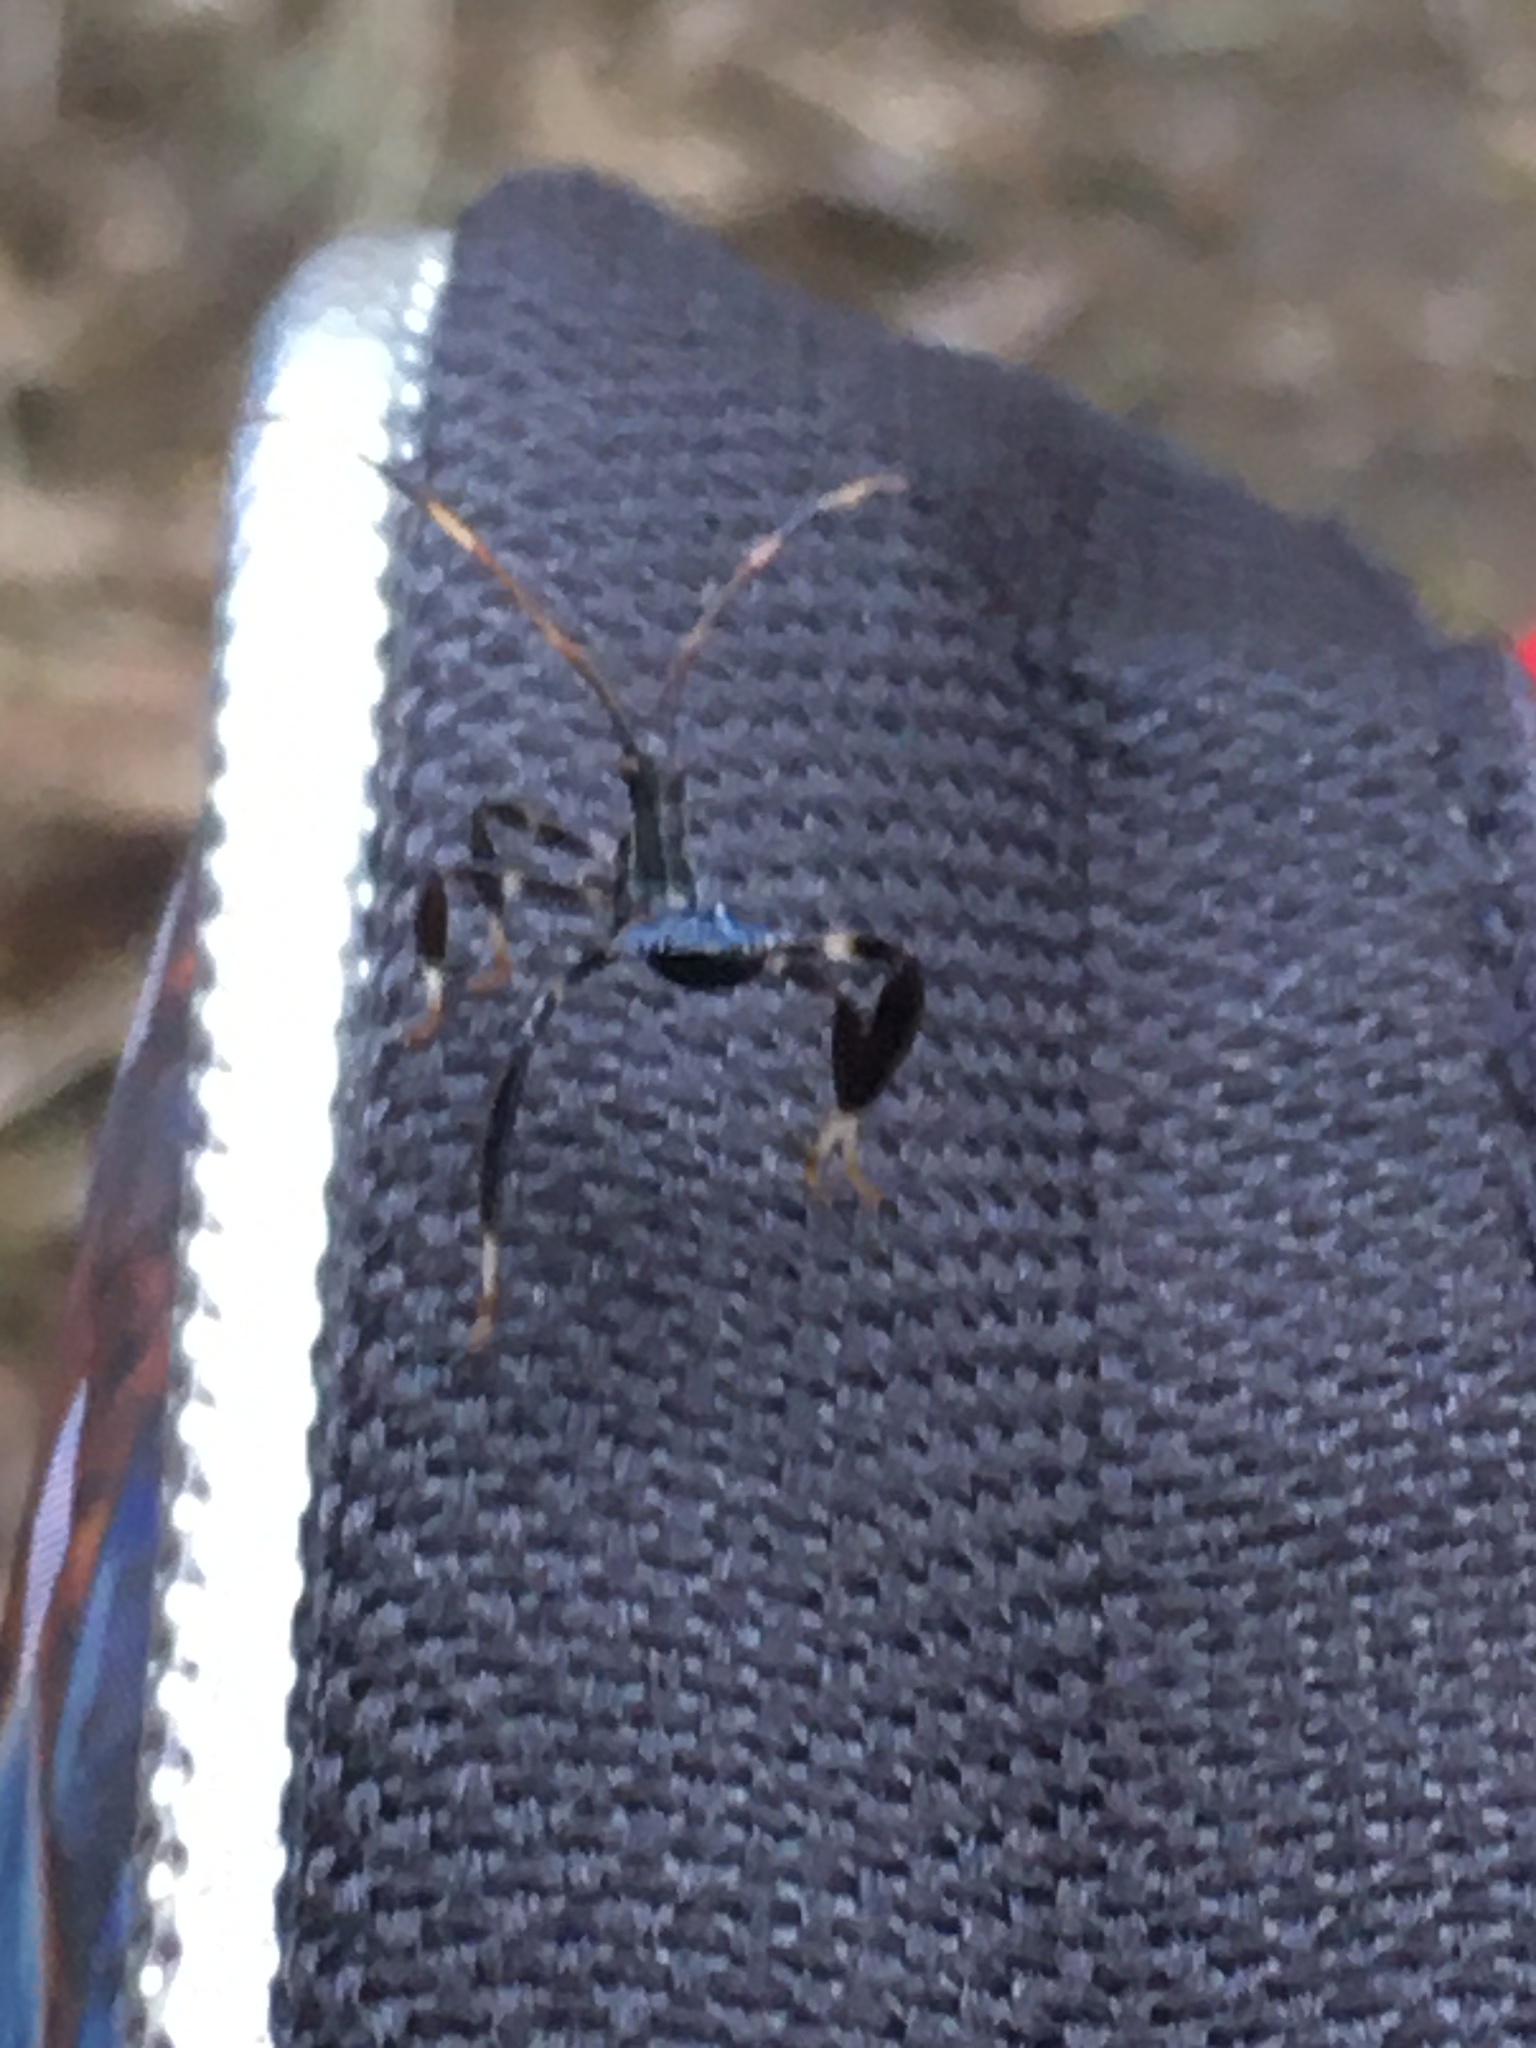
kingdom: Animalia
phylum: Arthropoda
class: Insecta
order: Hemiptera
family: Coreidae
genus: Acanthocephala
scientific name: Acanthocephala terminalis
